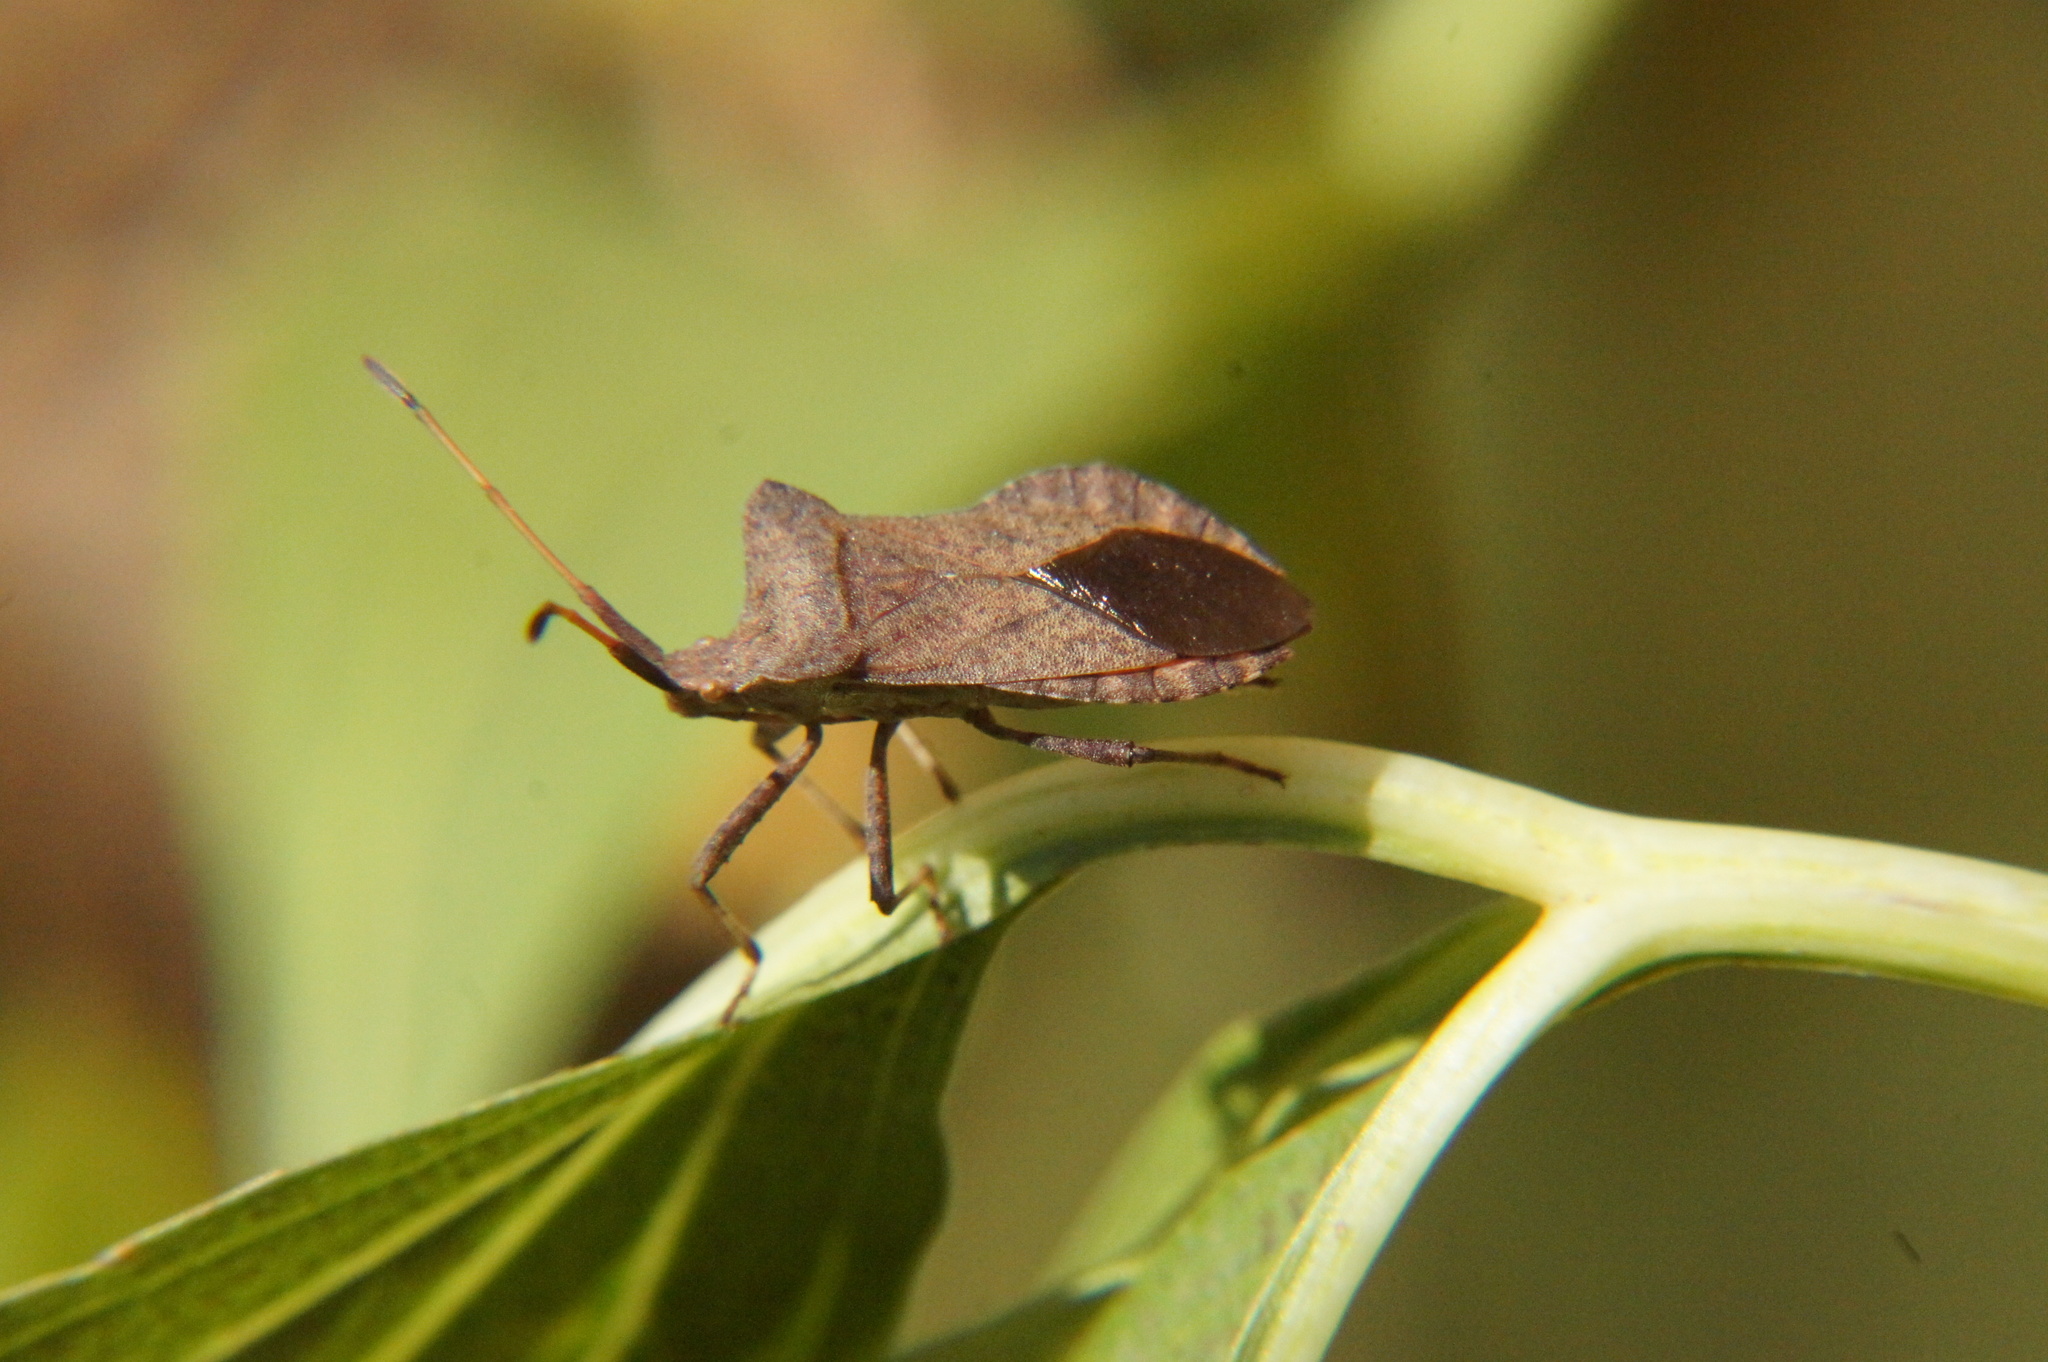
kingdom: Animalia
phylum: Arthropoda
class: Insecta
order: Hemiptera
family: Coreidae
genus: Coreus
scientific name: Coreus marginatus
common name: Dock bug
